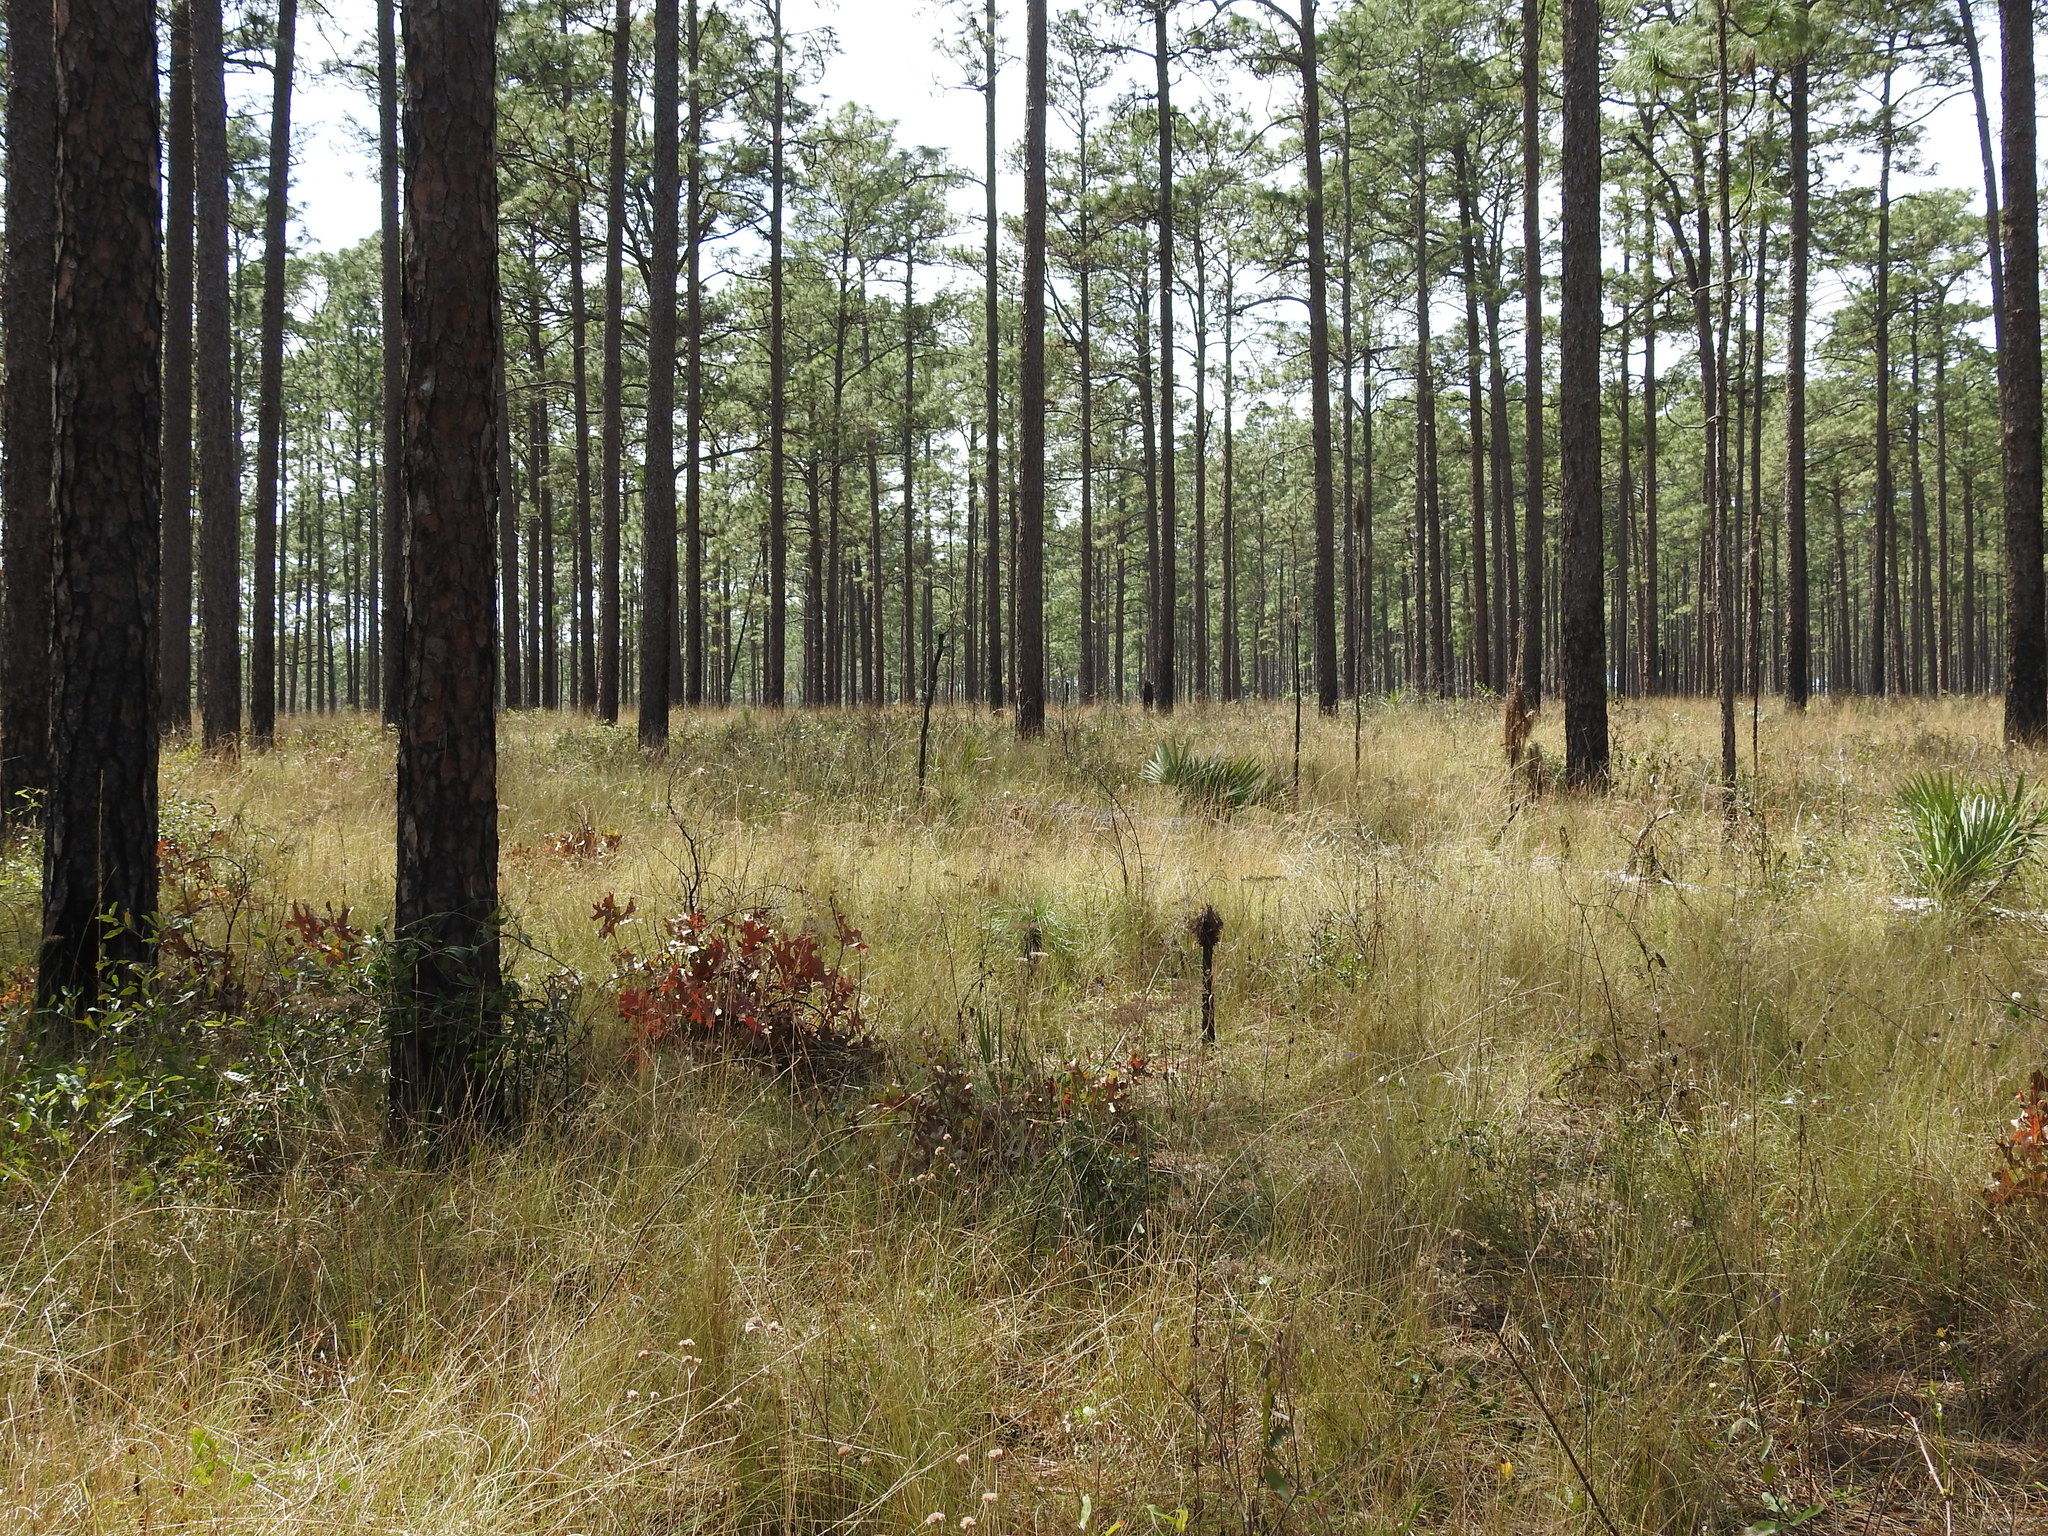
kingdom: Animalia
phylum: Chordata
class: Aves
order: Passeriformes
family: Passerellidae
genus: Peucaea
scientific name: Peucaea aestivalis
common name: Bachman's sparrow
